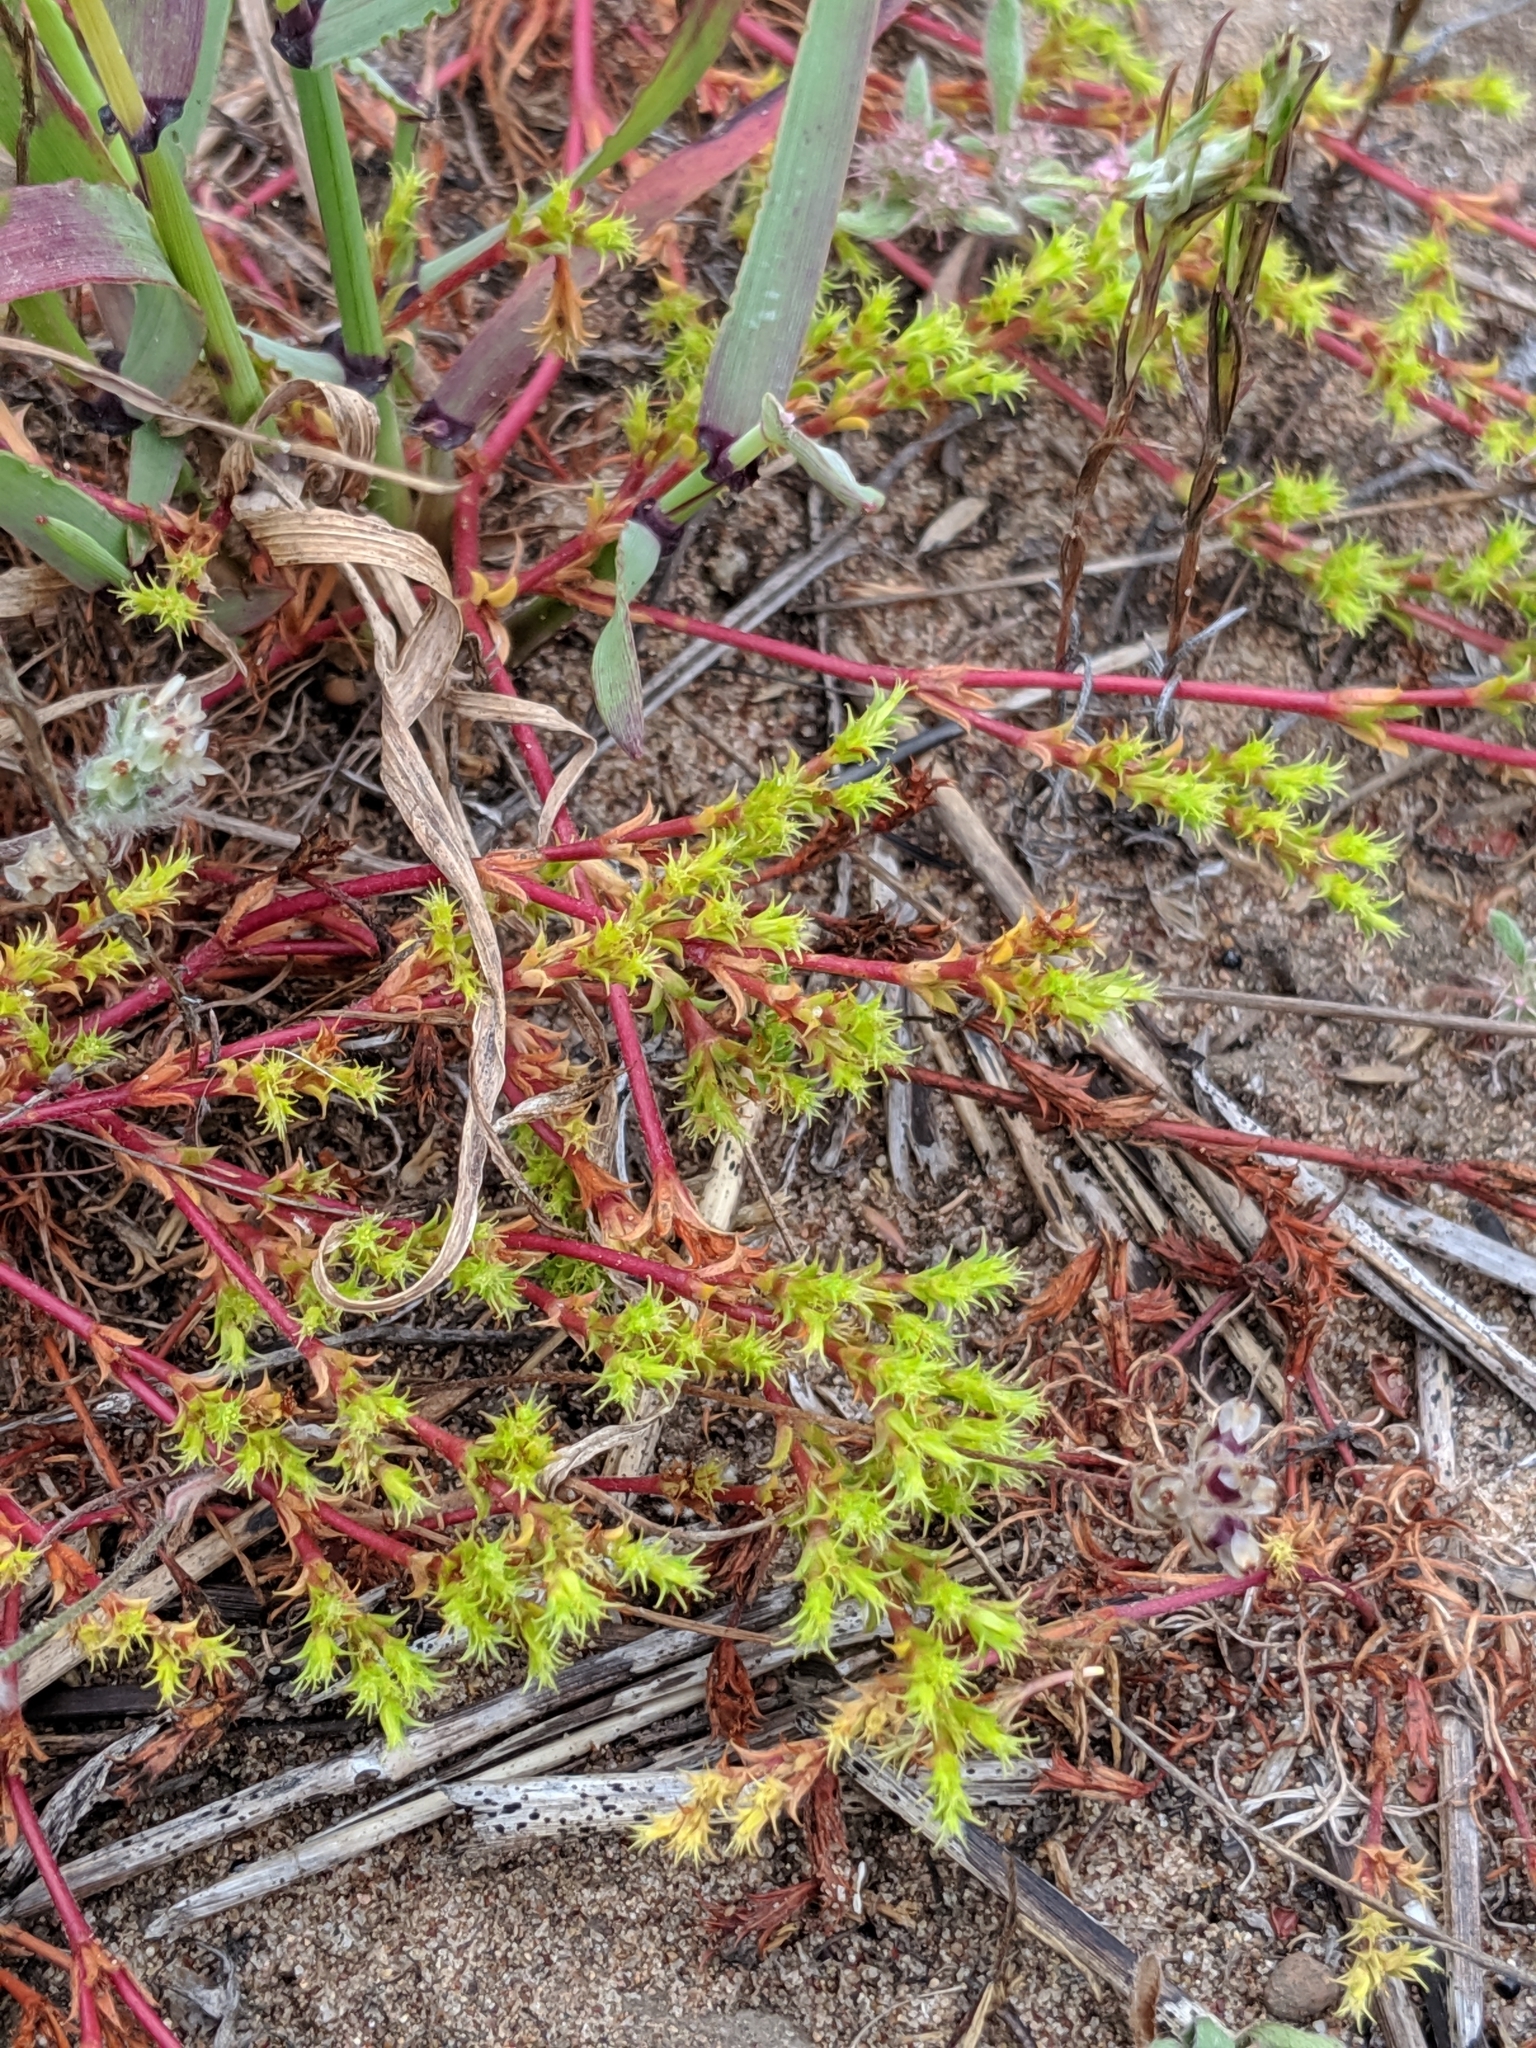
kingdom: Plantae
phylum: Tracheophyta
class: Magnoliopsida
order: Caryophyllales
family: Polygonaceae
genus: Lastarriaea
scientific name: Lastarriaea coriacea
